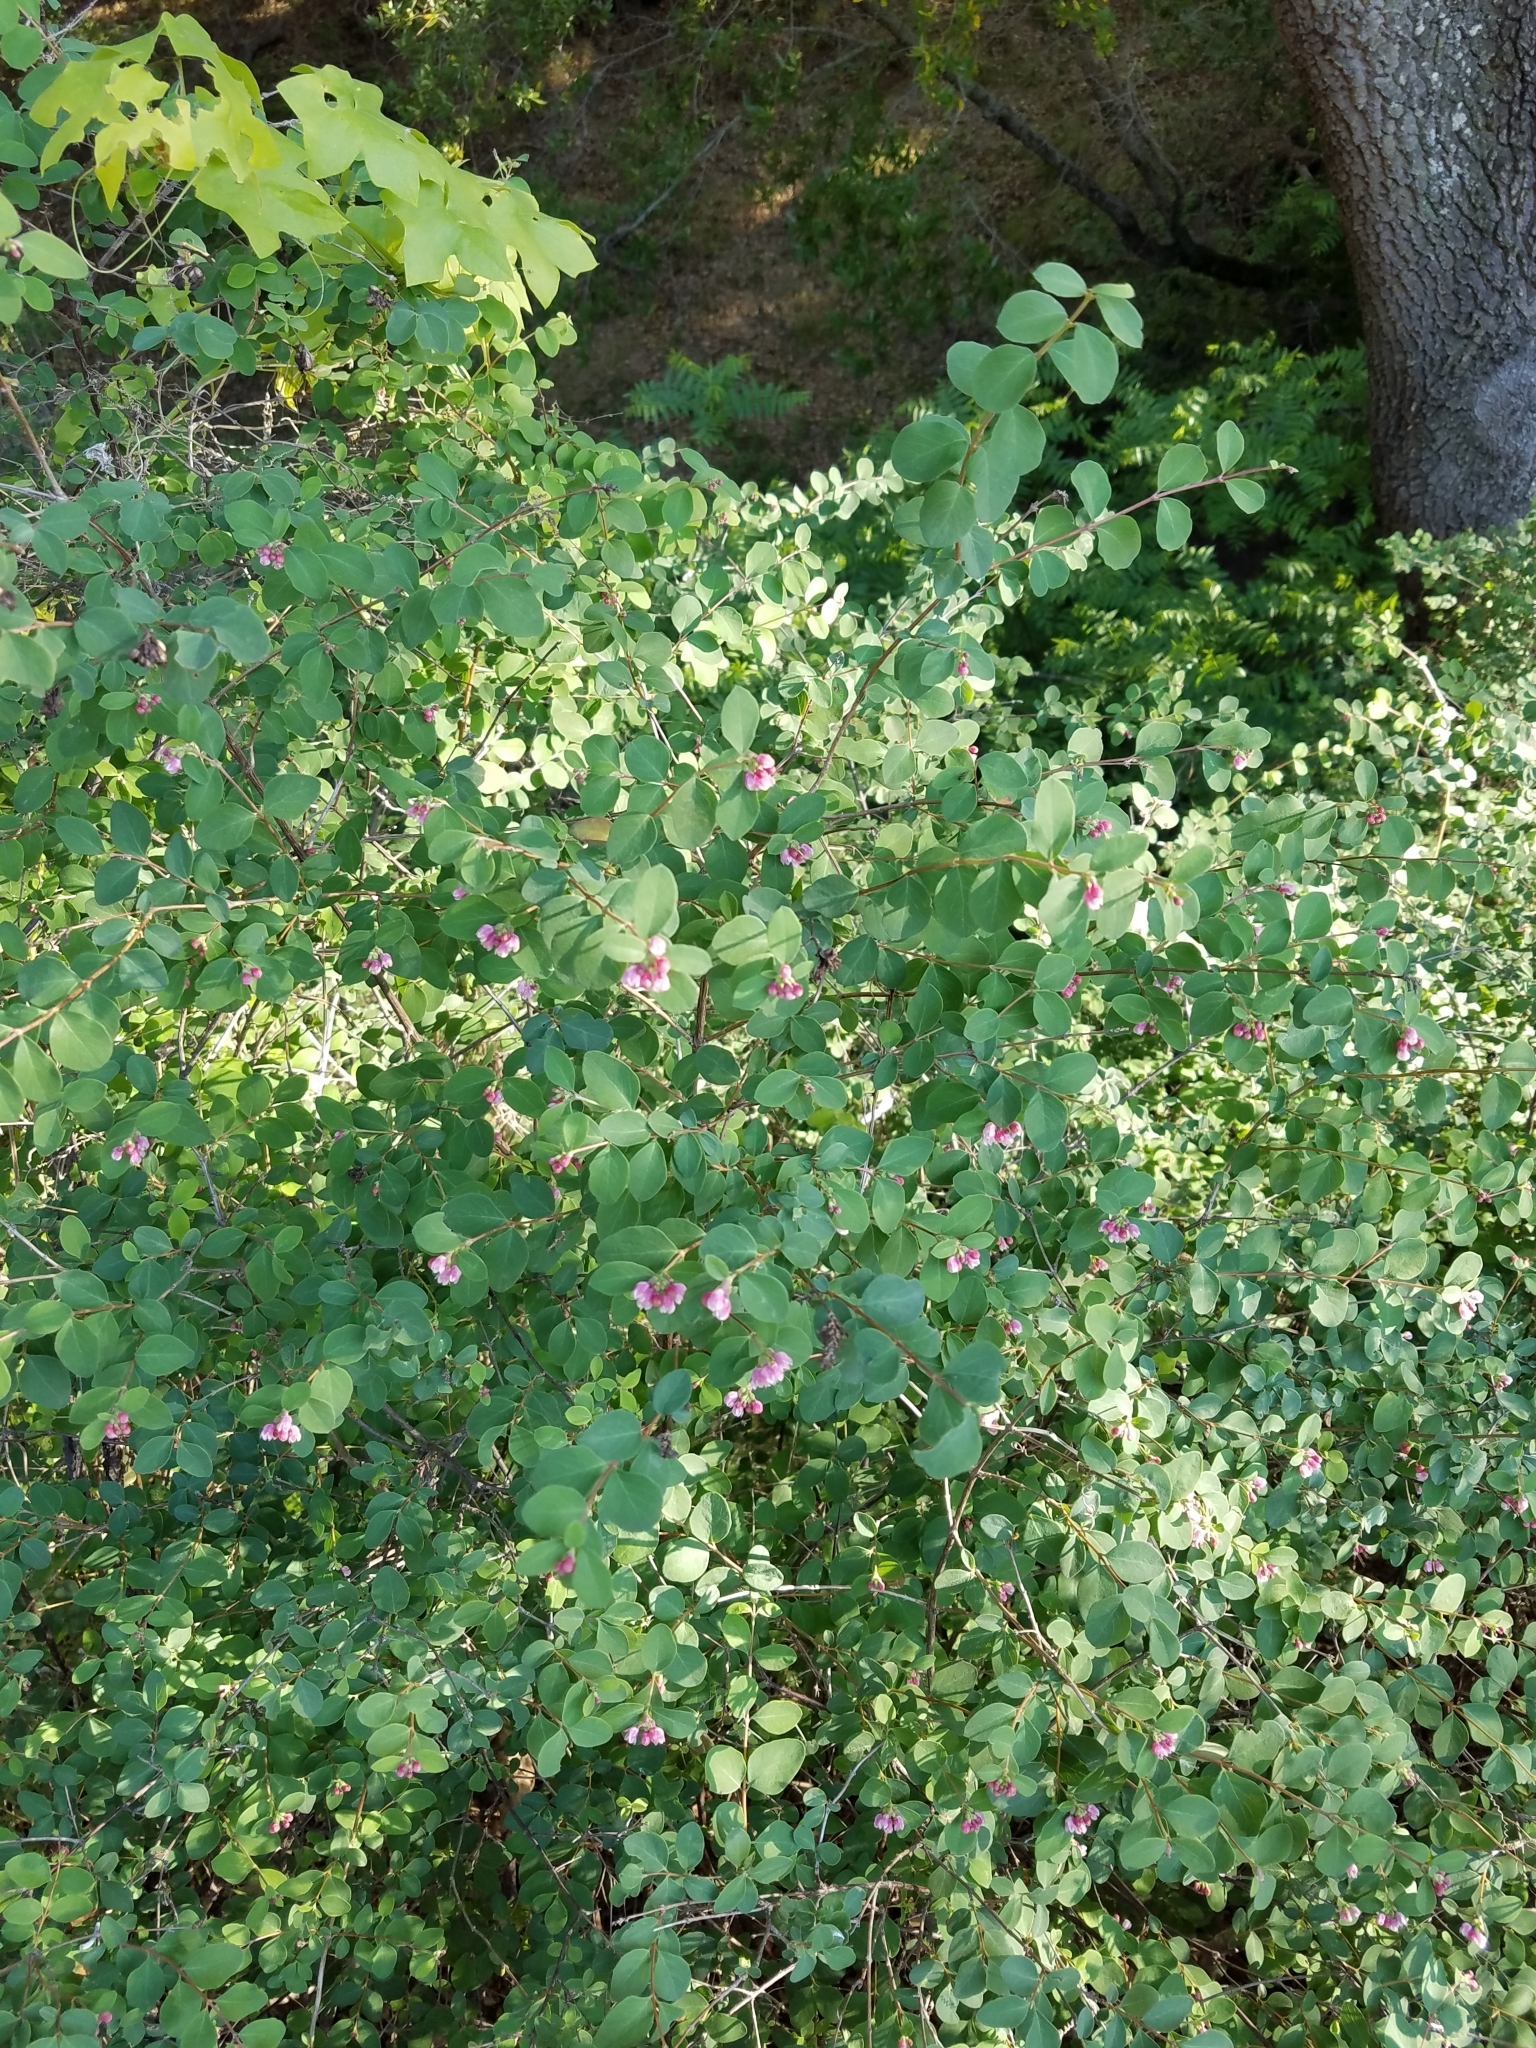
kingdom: Plantae
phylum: Tracheophyta
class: Magnoliopsida
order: Dipsacales
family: Caprifoliaceae
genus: Symphoricarpos
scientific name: Symphoricarpos albus
